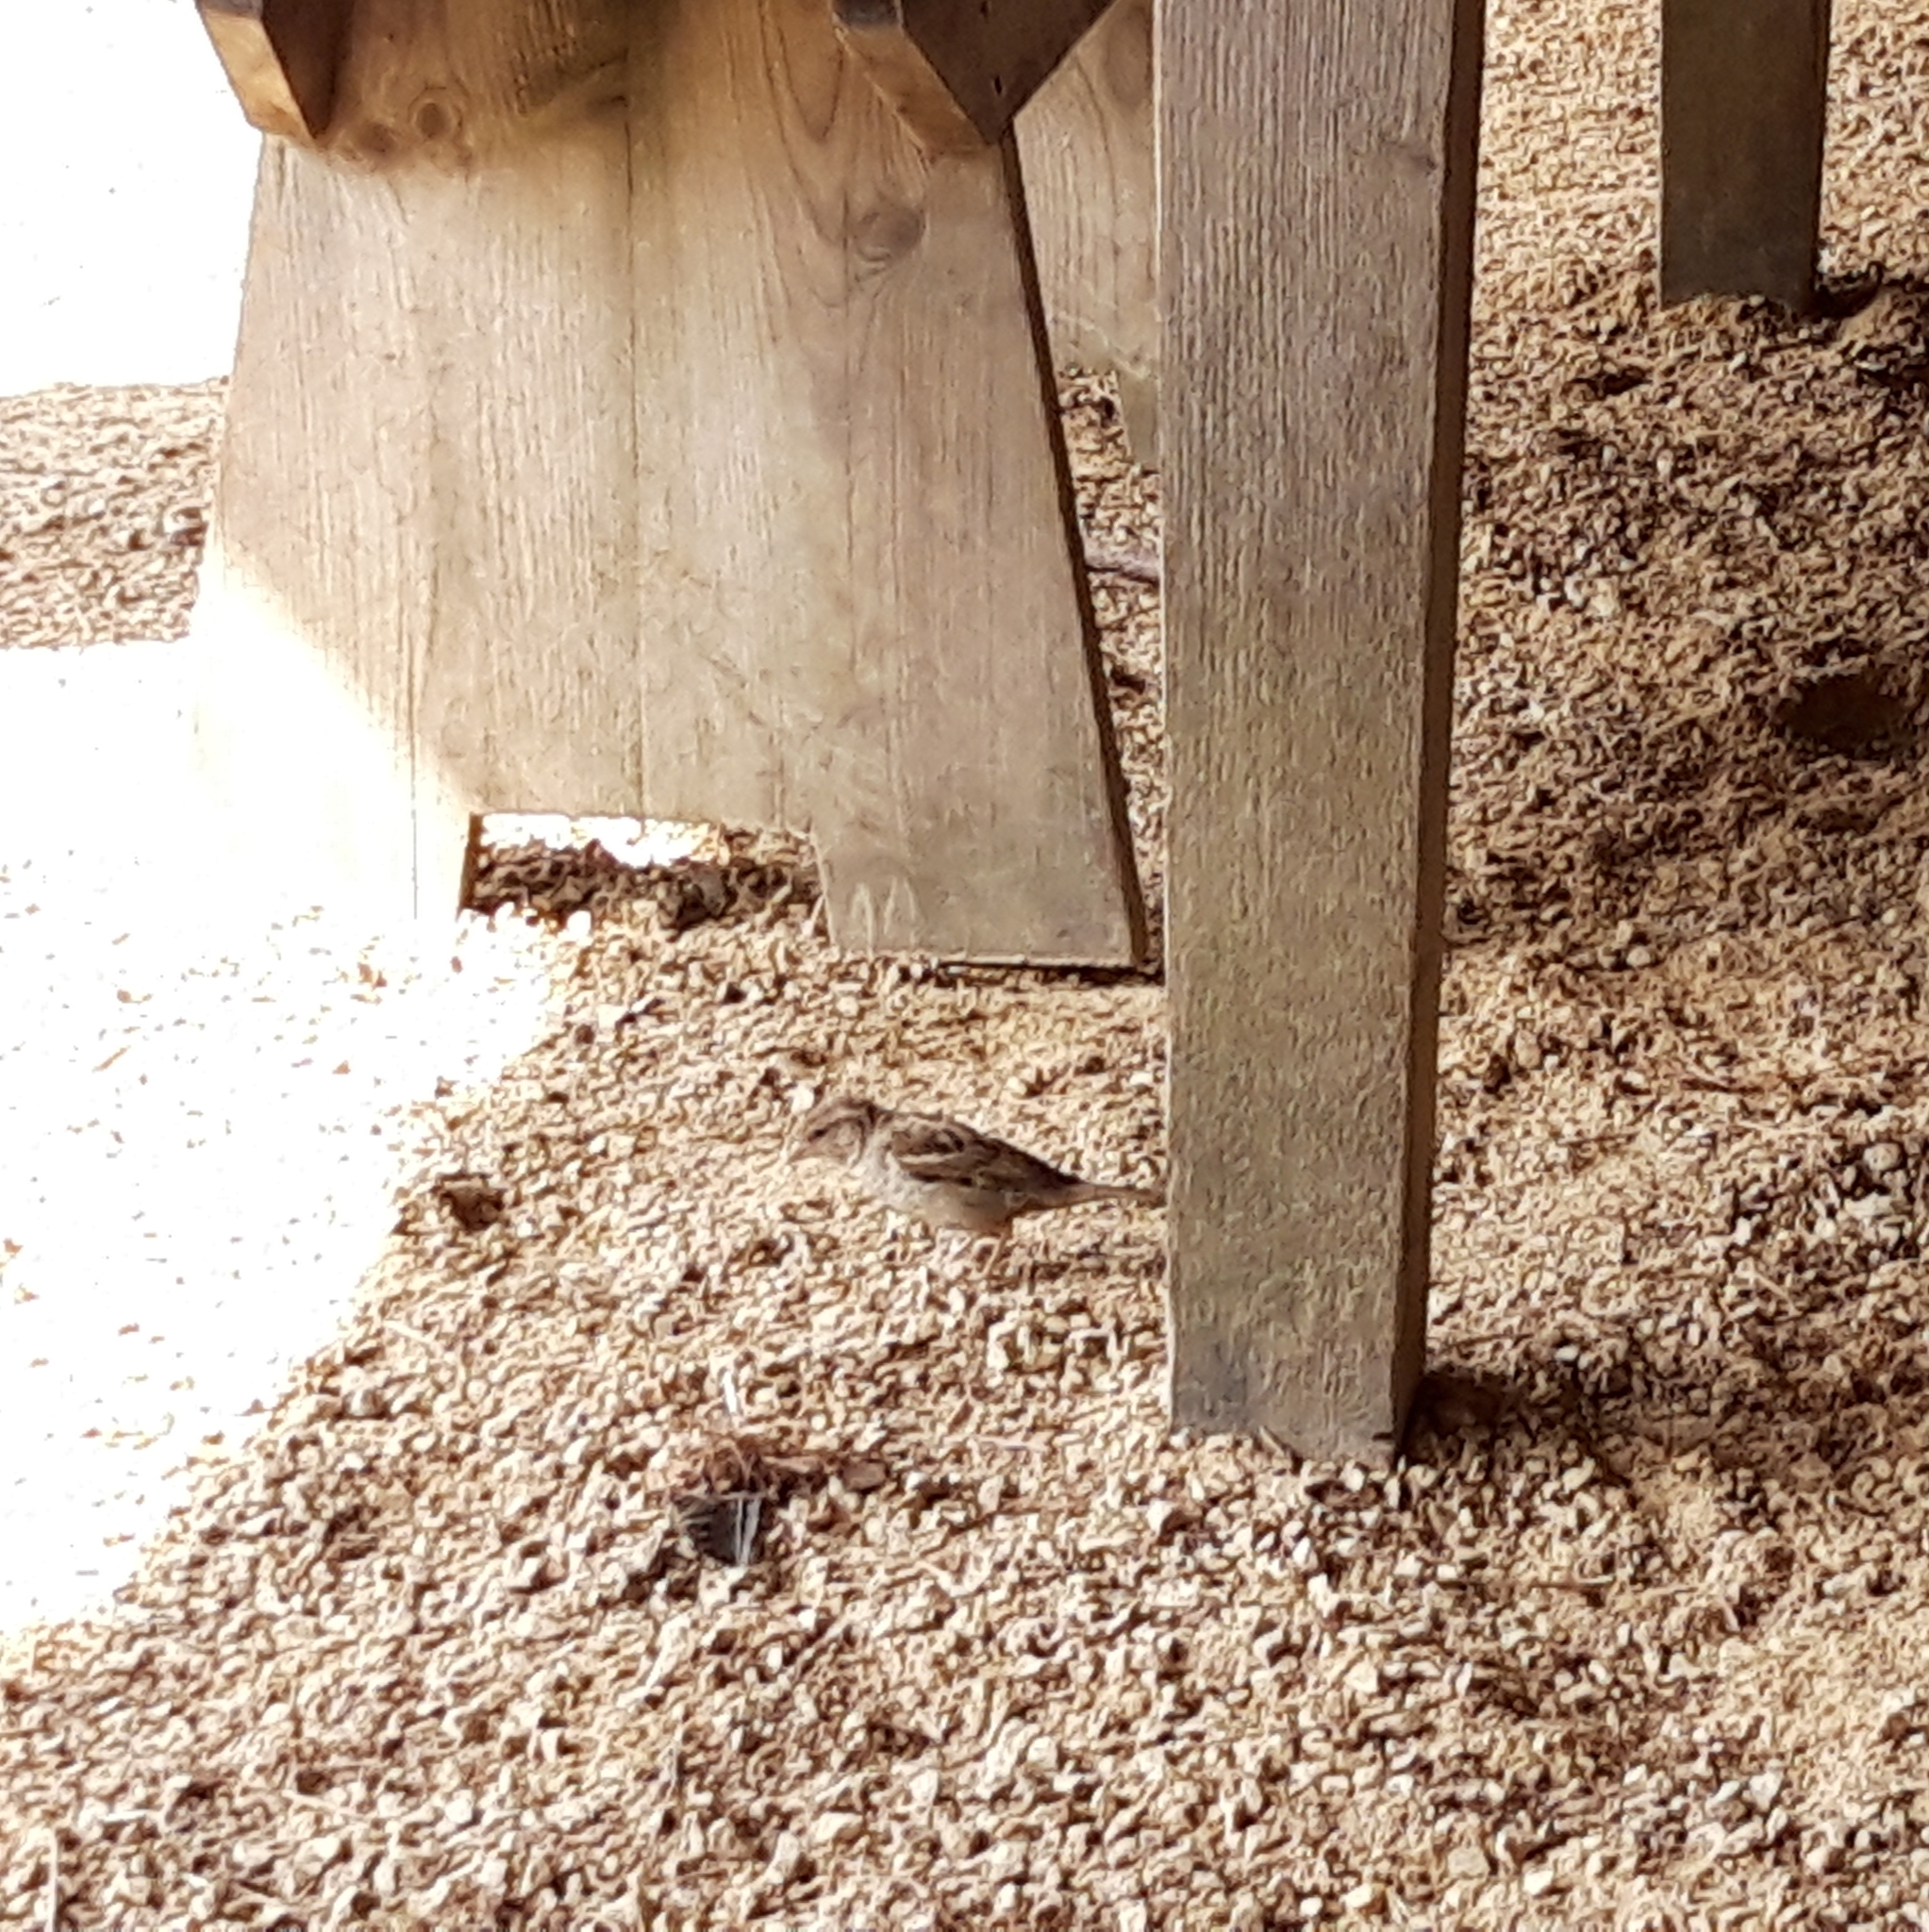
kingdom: Animalia
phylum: Chordata
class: Aves
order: Passeriformes
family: Passeridae
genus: Passer
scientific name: Passer domesticus
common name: House sparrow
